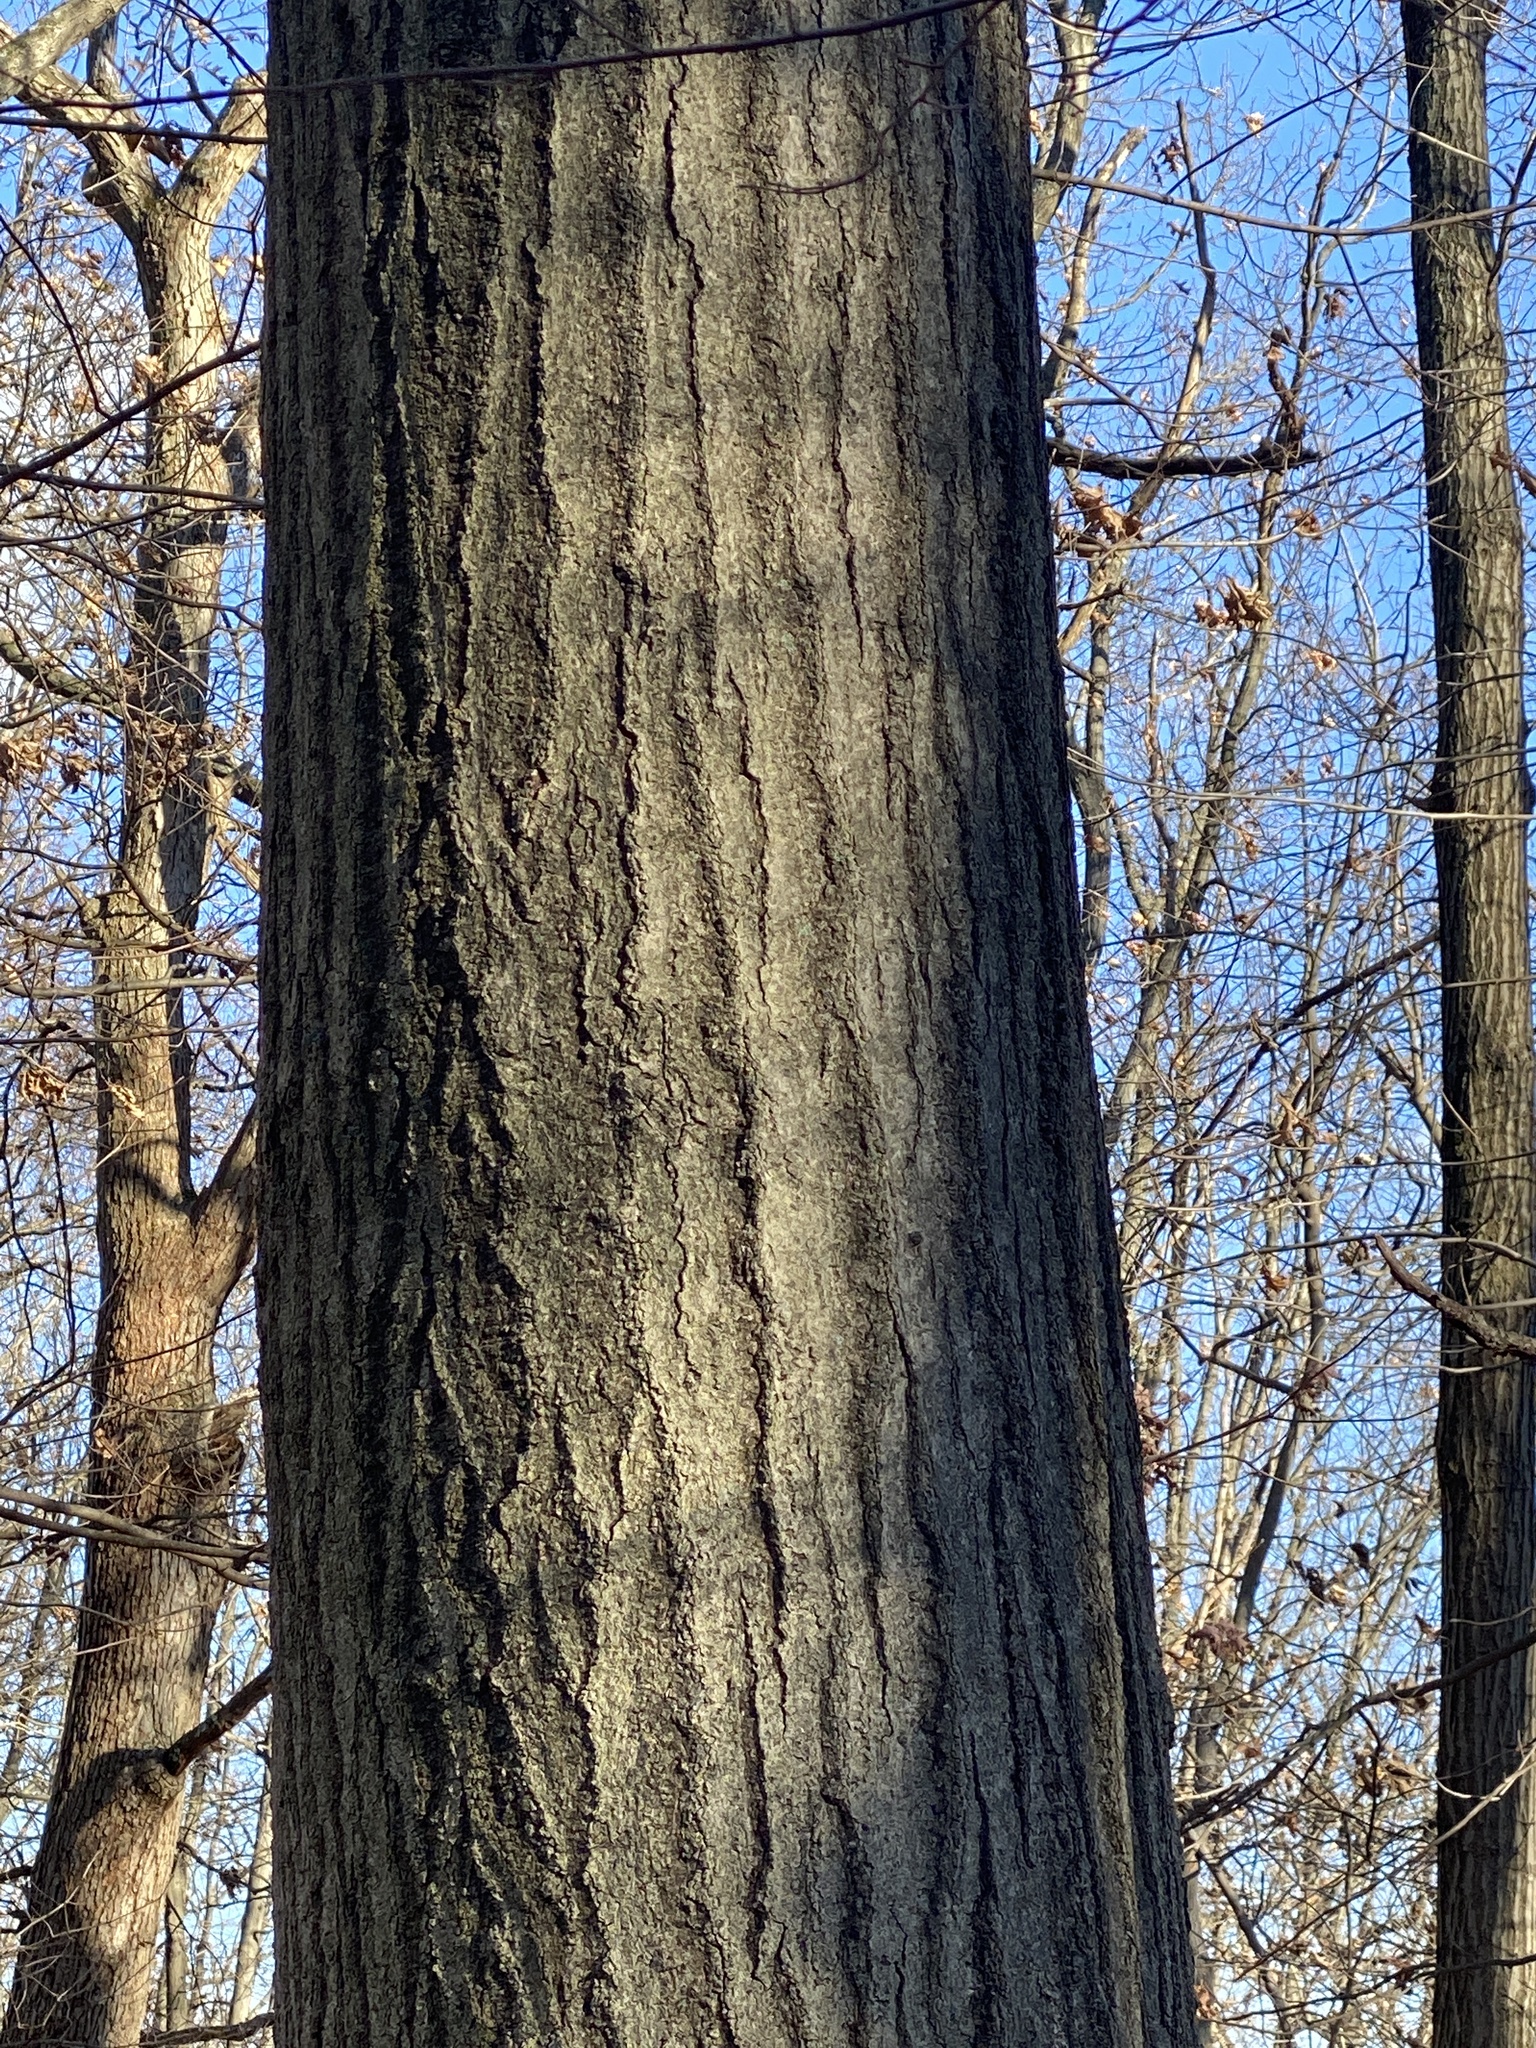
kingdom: Plantae
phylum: Tracheophyta
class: Magnoliopsida
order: Fagales
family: Fagaceae
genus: Quercus
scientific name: Quercus rubra
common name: Red oak
